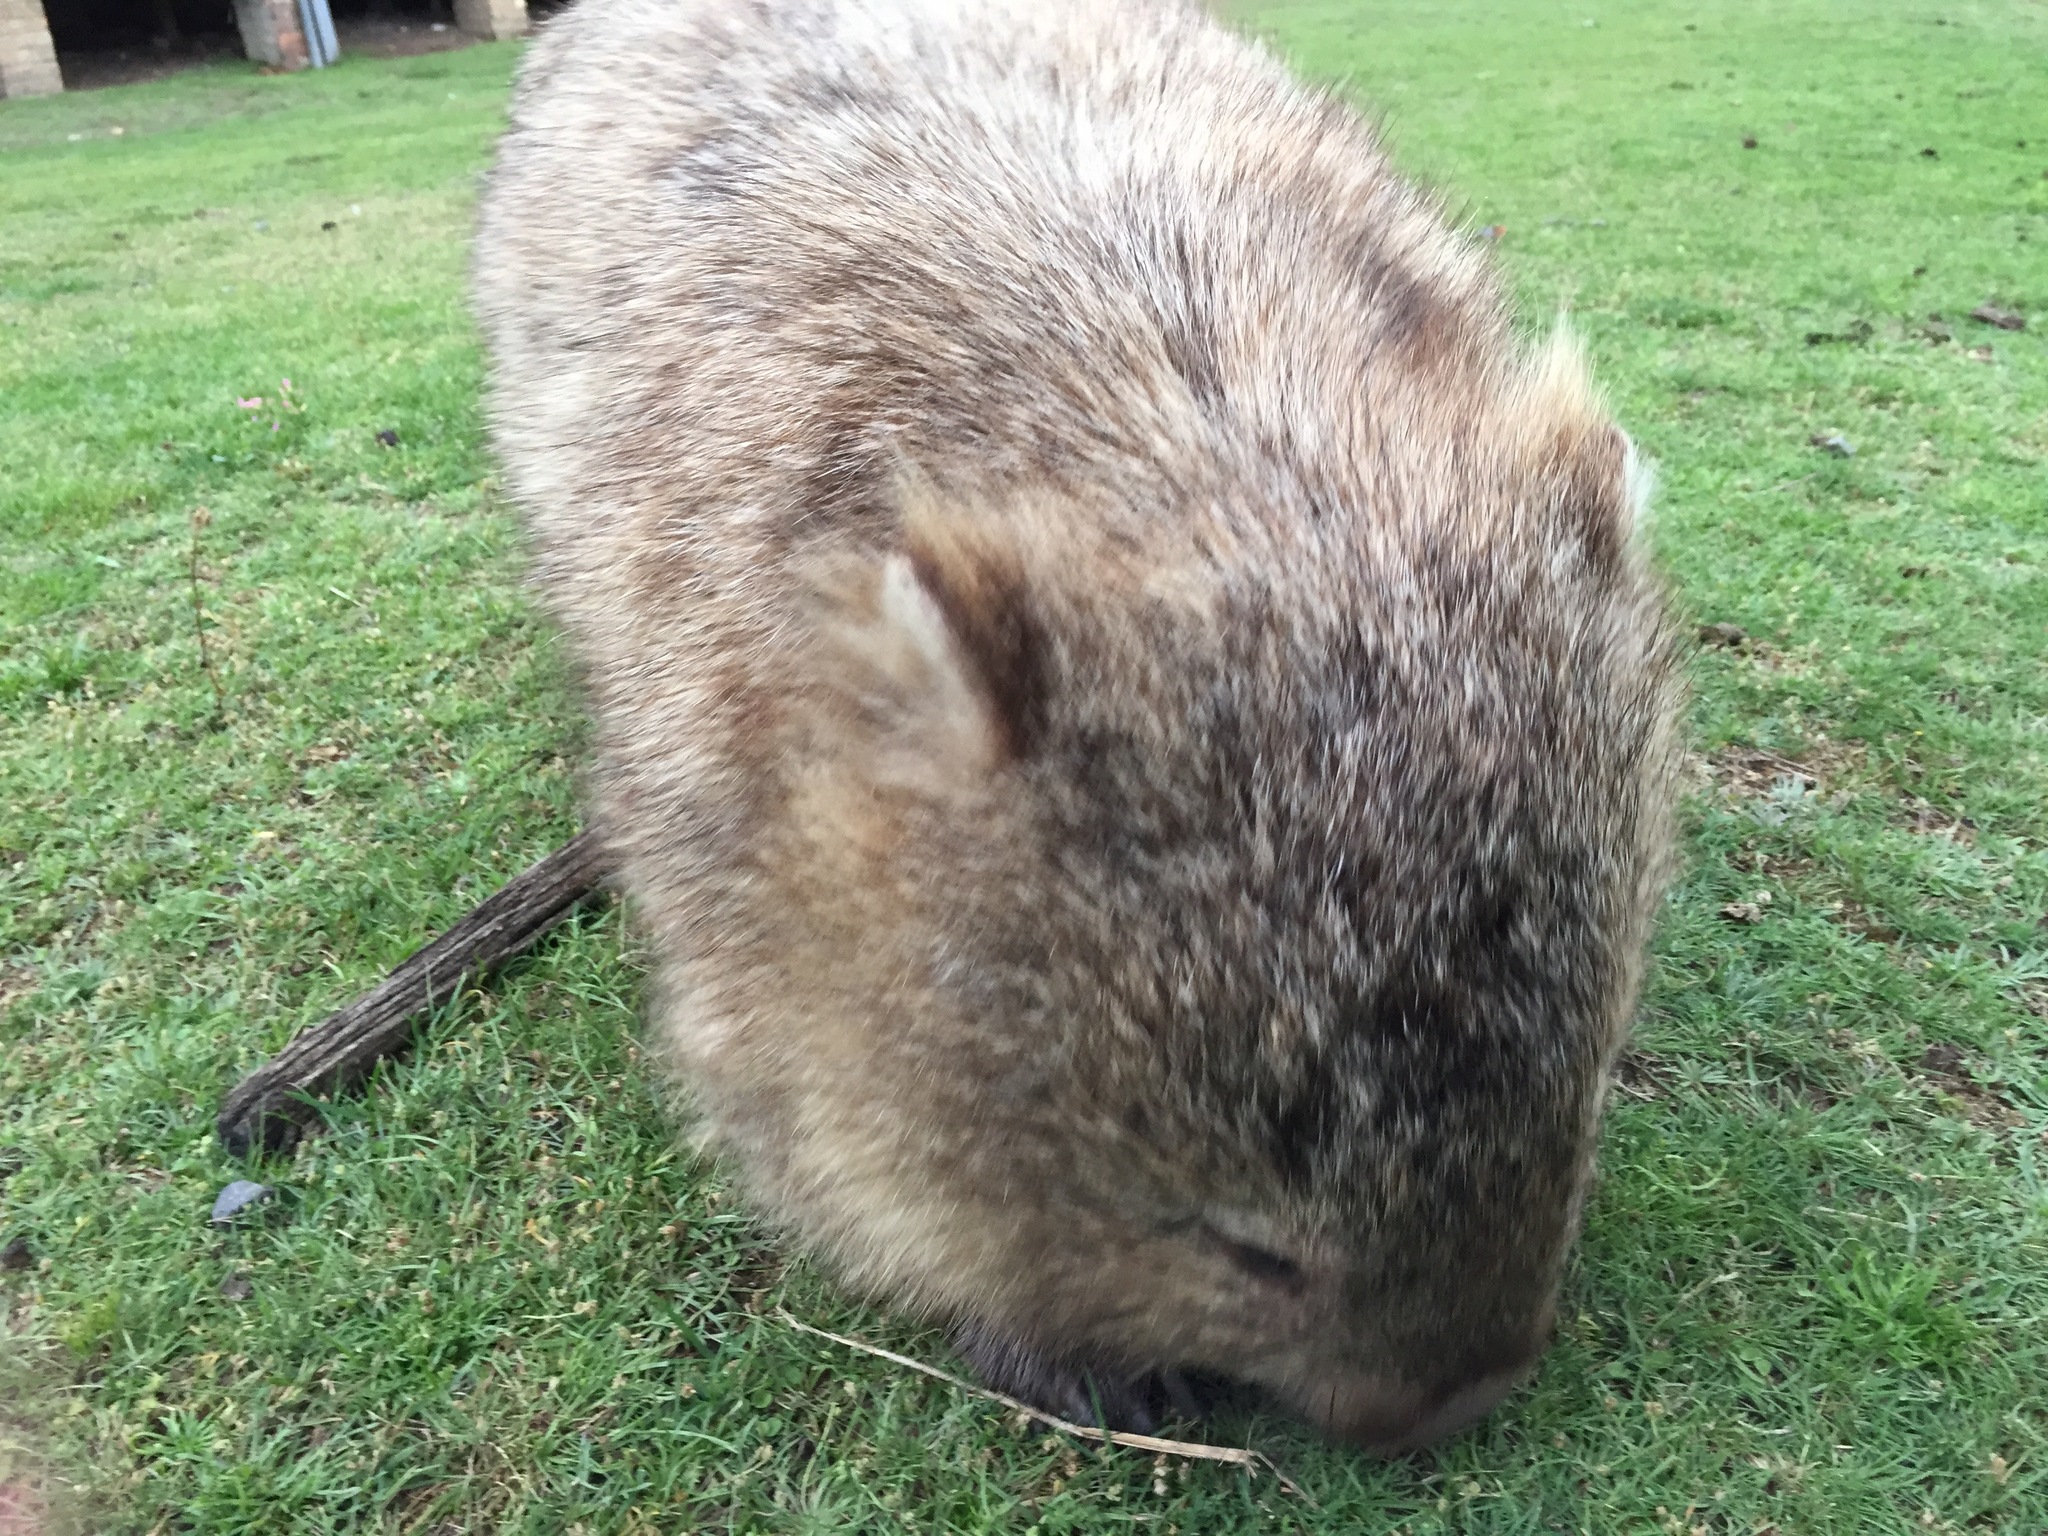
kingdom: Animalia
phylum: Chordata
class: Mammalia
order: Diprotodontia
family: Vombatidae
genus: Vombatus
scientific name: Vombatus ursinus
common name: Common wombat
